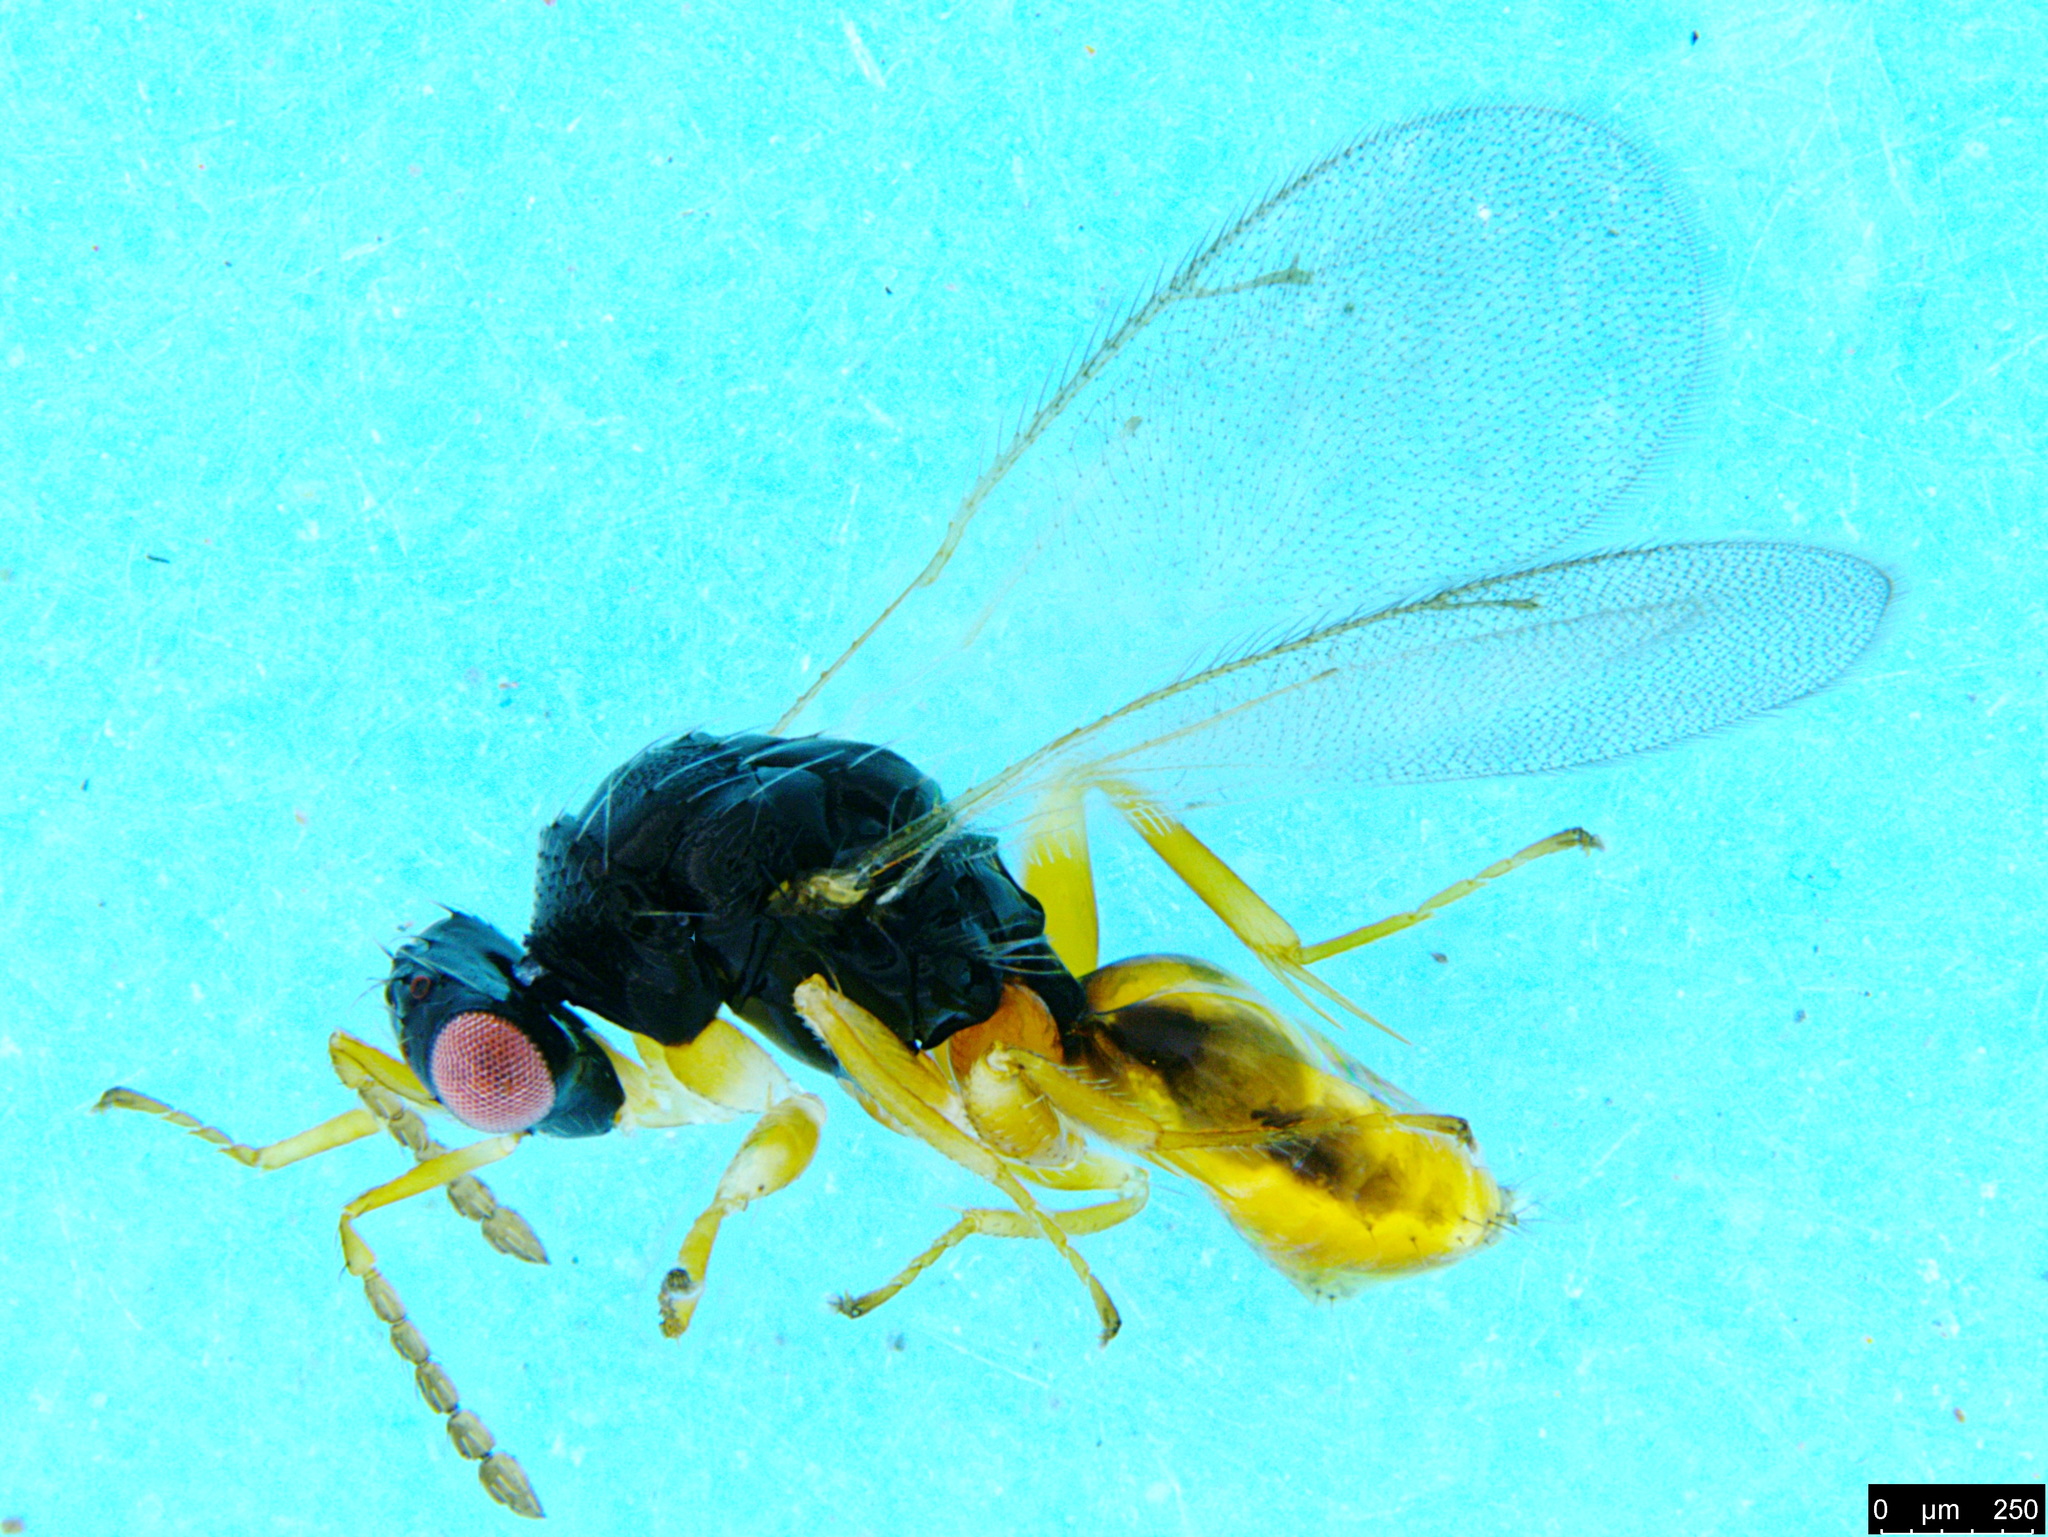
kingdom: Animalia
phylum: Arthropoda
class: Insecta
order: Hymenoptera
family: Eulophidae
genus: Euplectrus
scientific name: Euplectrus
